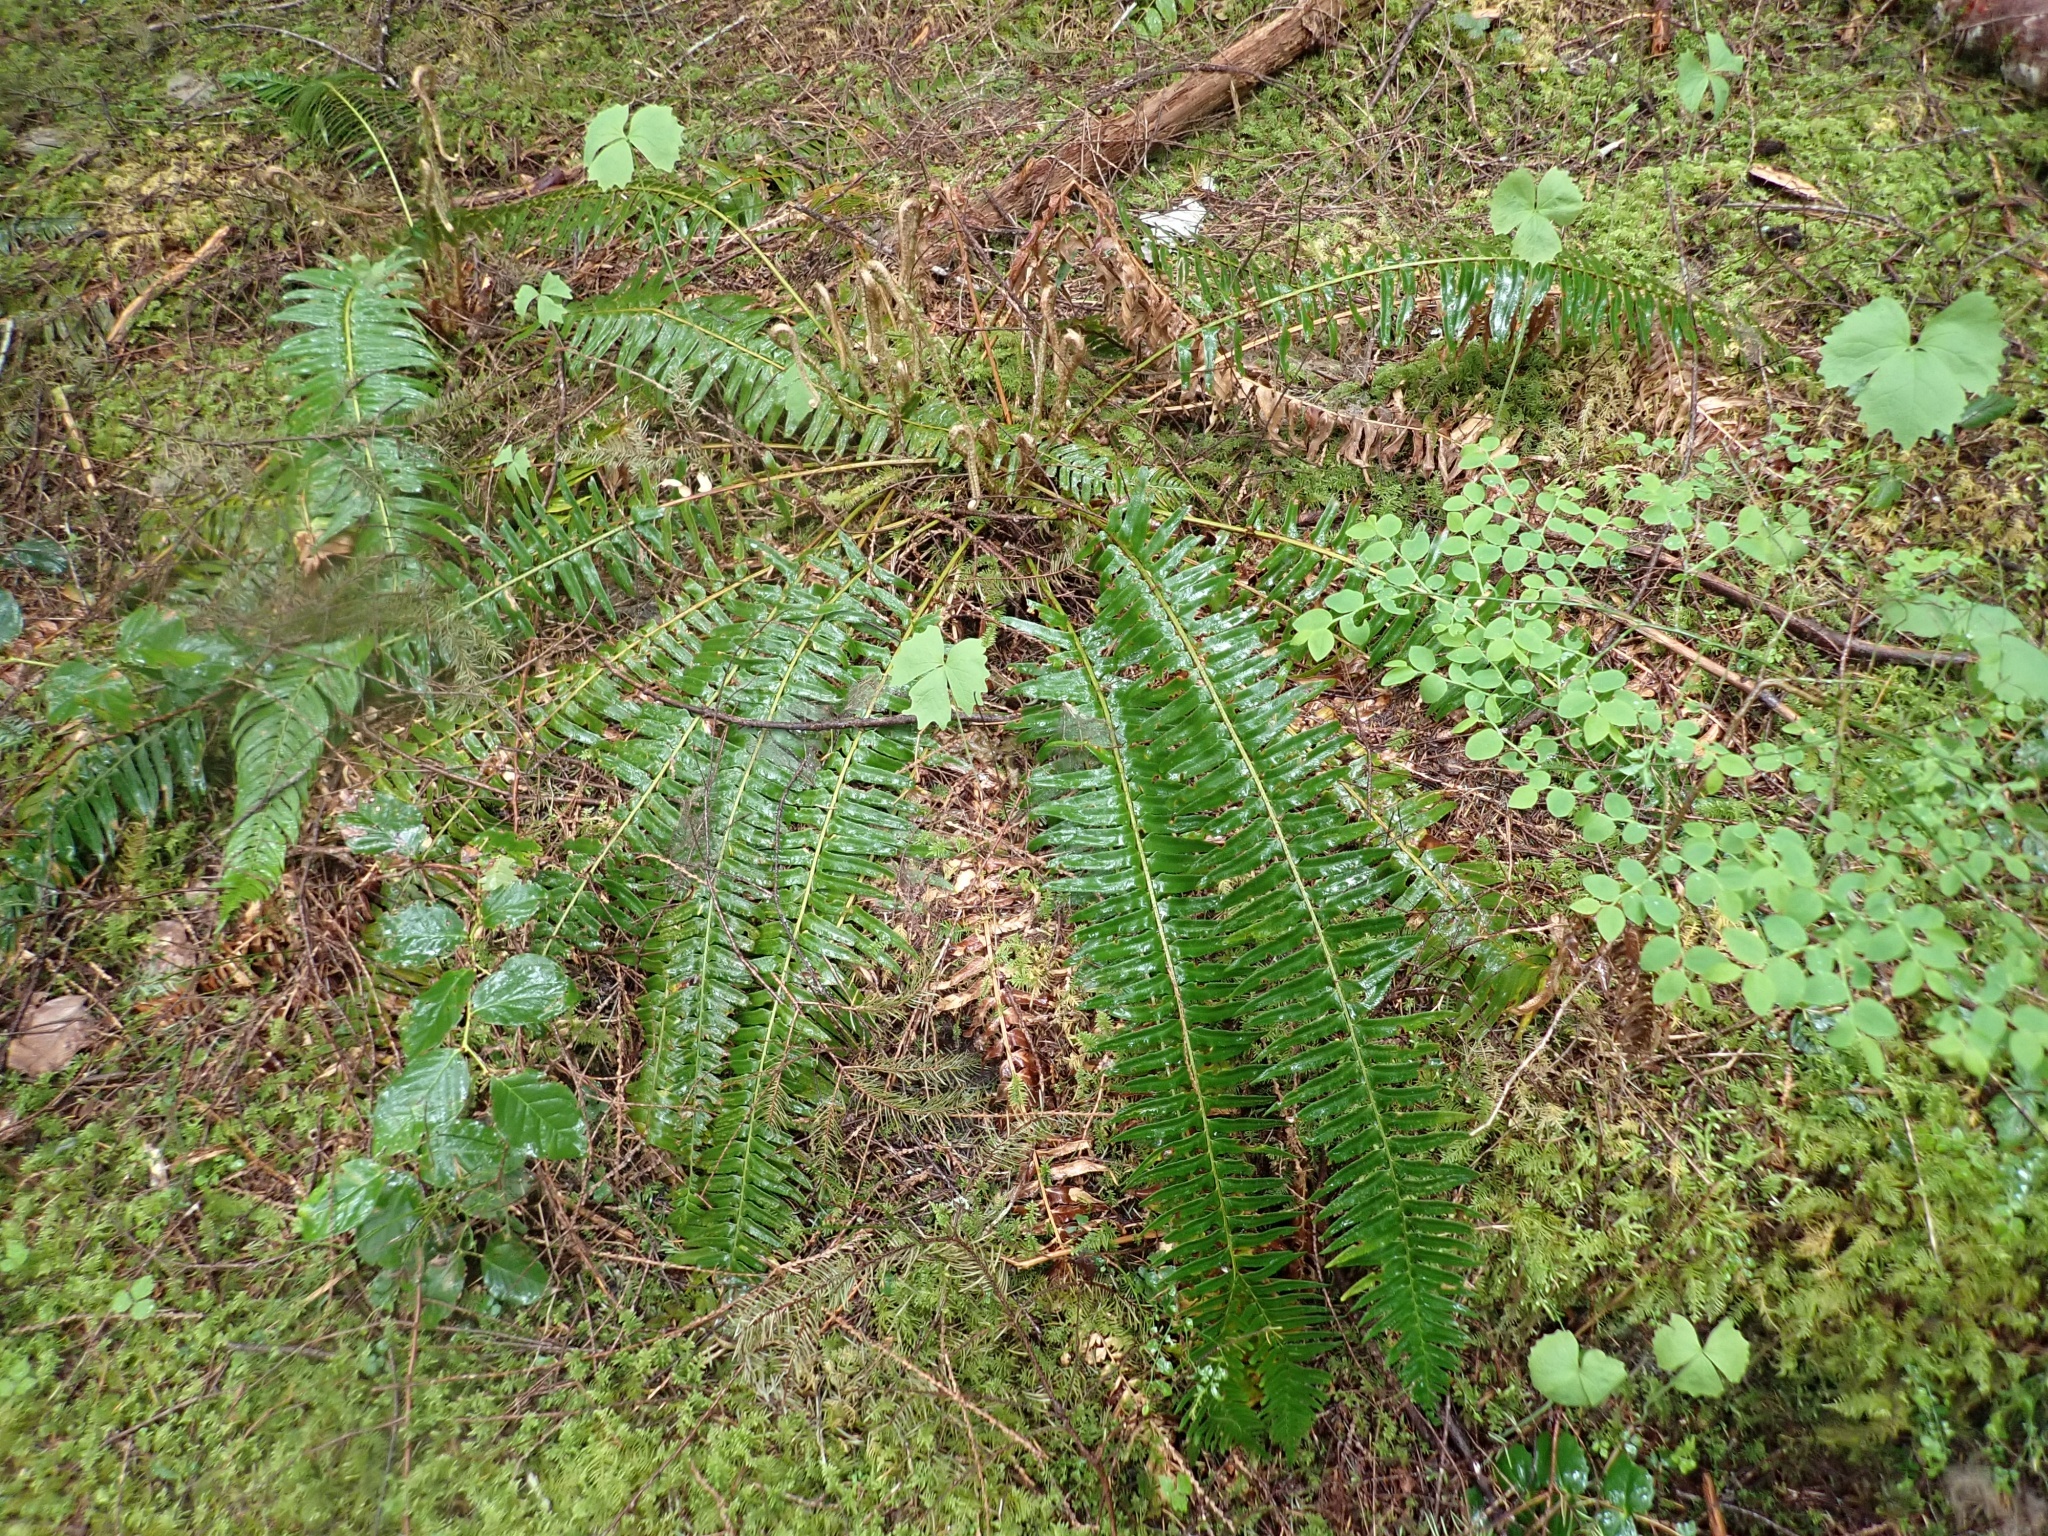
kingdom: Plantae
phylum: Tracheophyta
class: Polypodiopsida
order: Polypodiales
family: Dryopteridaceae
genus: Polystichum
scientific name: Polystichum munitum
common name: Western sword-fern
